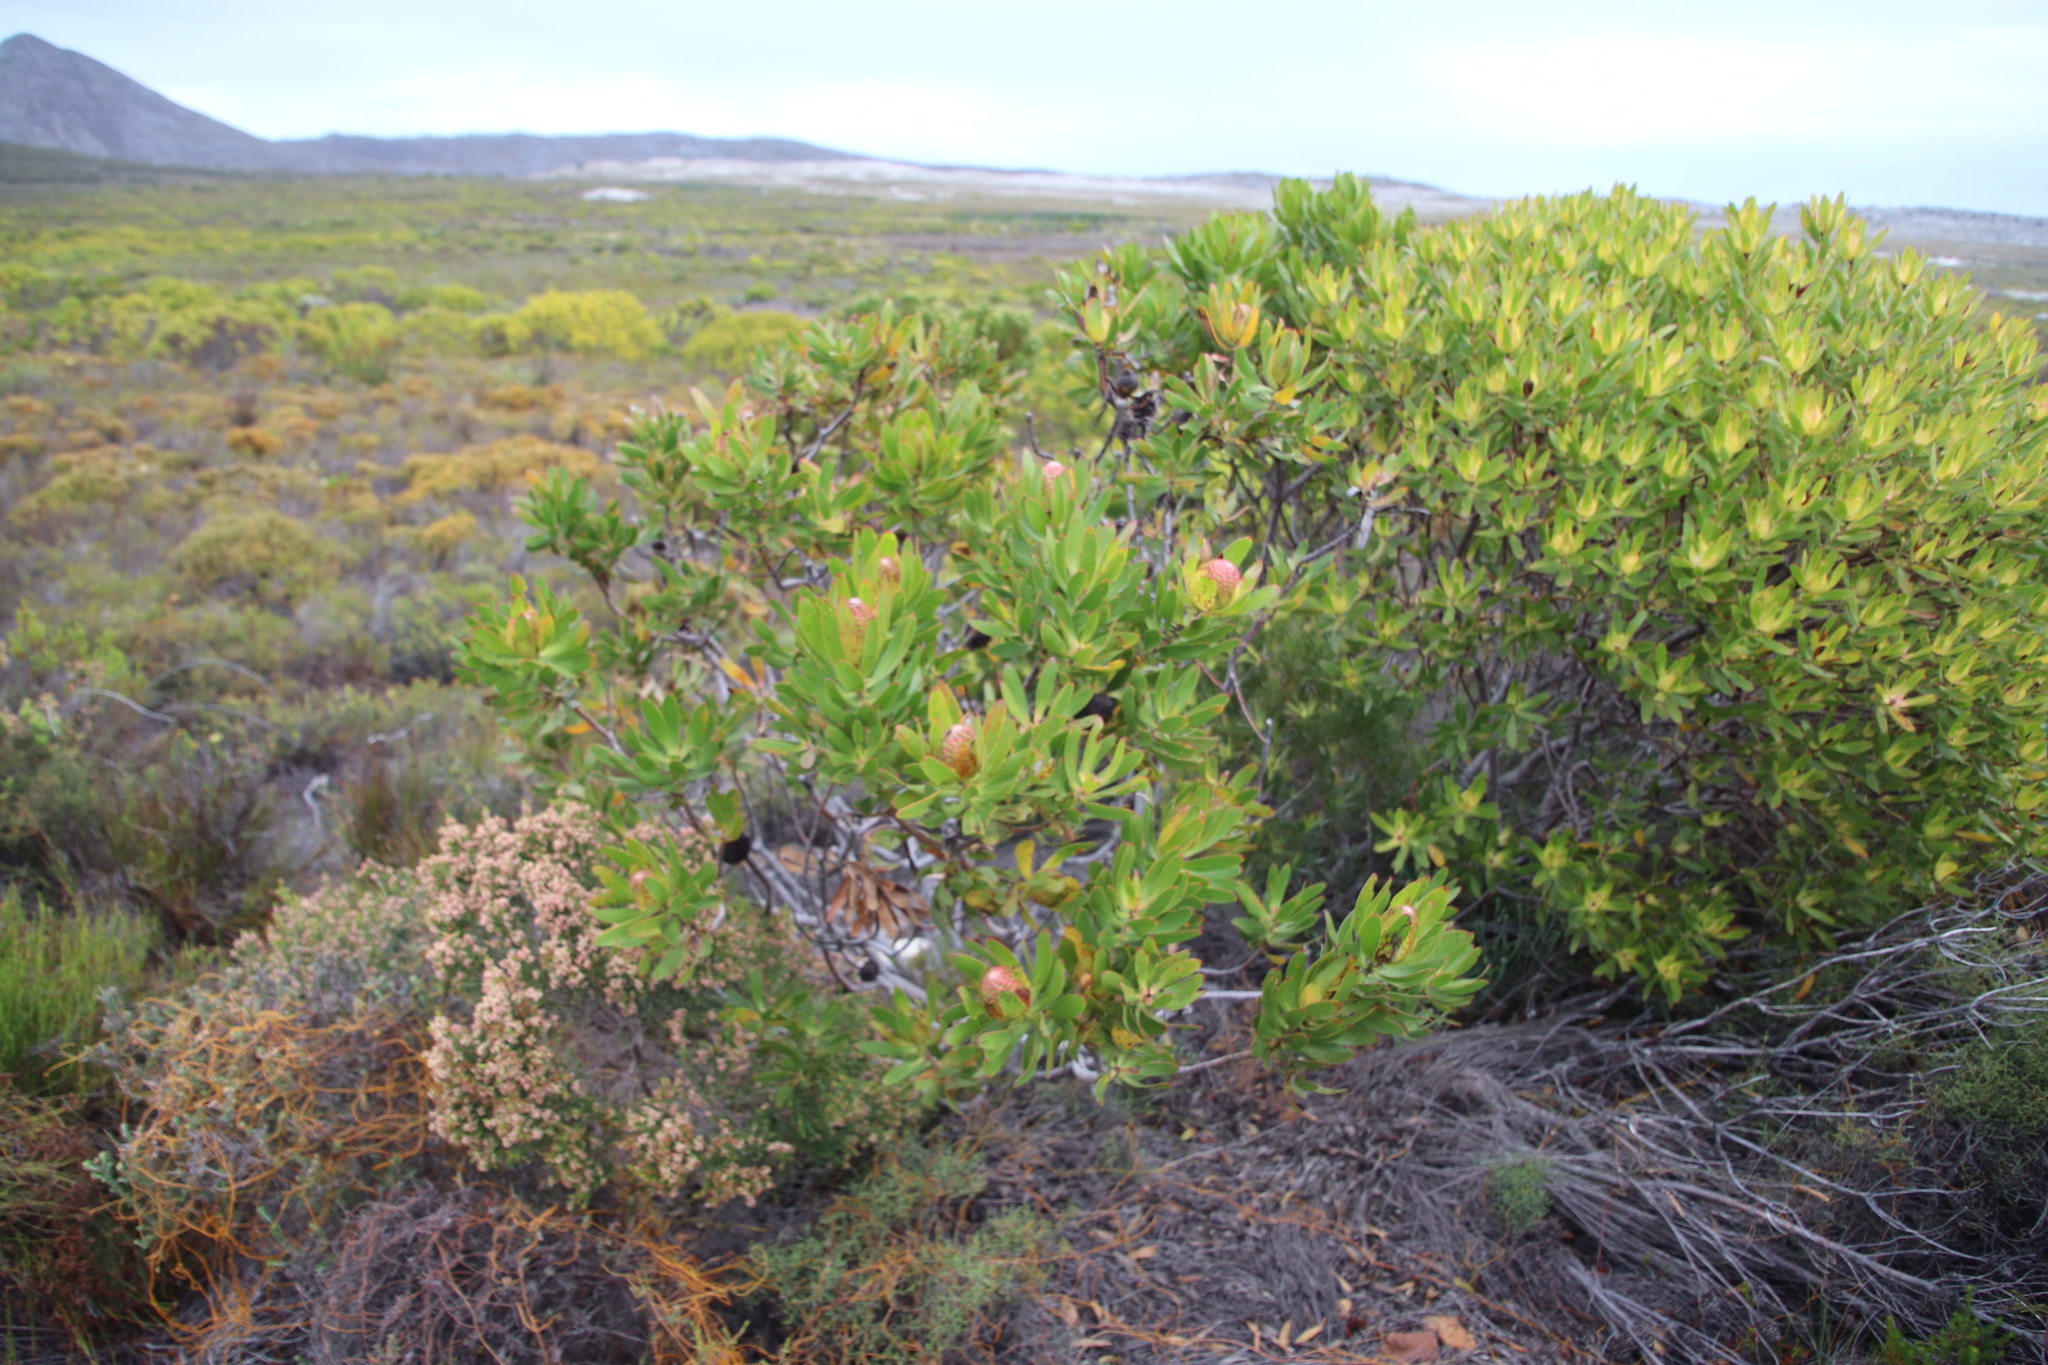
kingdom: Plantae
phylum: Tracheophyta
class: Magnoliopsida
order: Proteales
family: Proteaceae
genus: Leucadendron
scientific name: Leucadendron laureolum
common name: Golden sunshinebush
